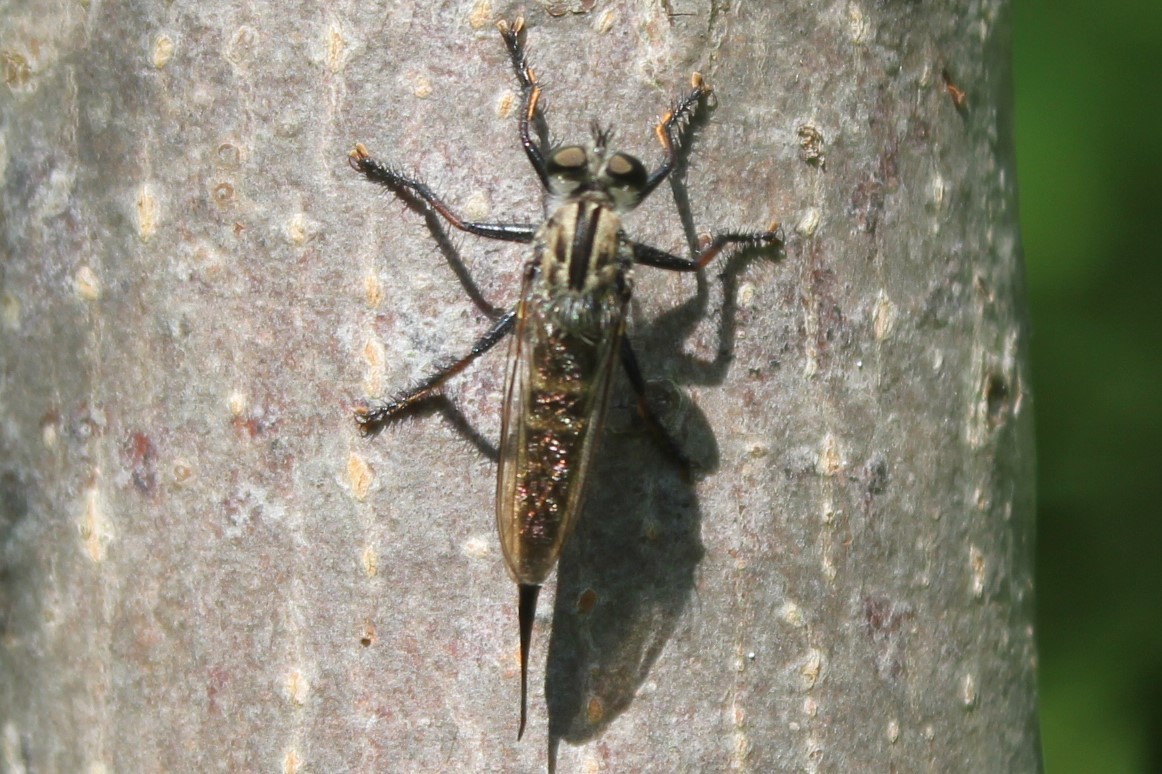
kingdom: Animalia
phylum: Arthropoda
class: Insecta
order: Diptera
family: Asilidae
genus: Efferia
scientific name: Efferia aestuans
